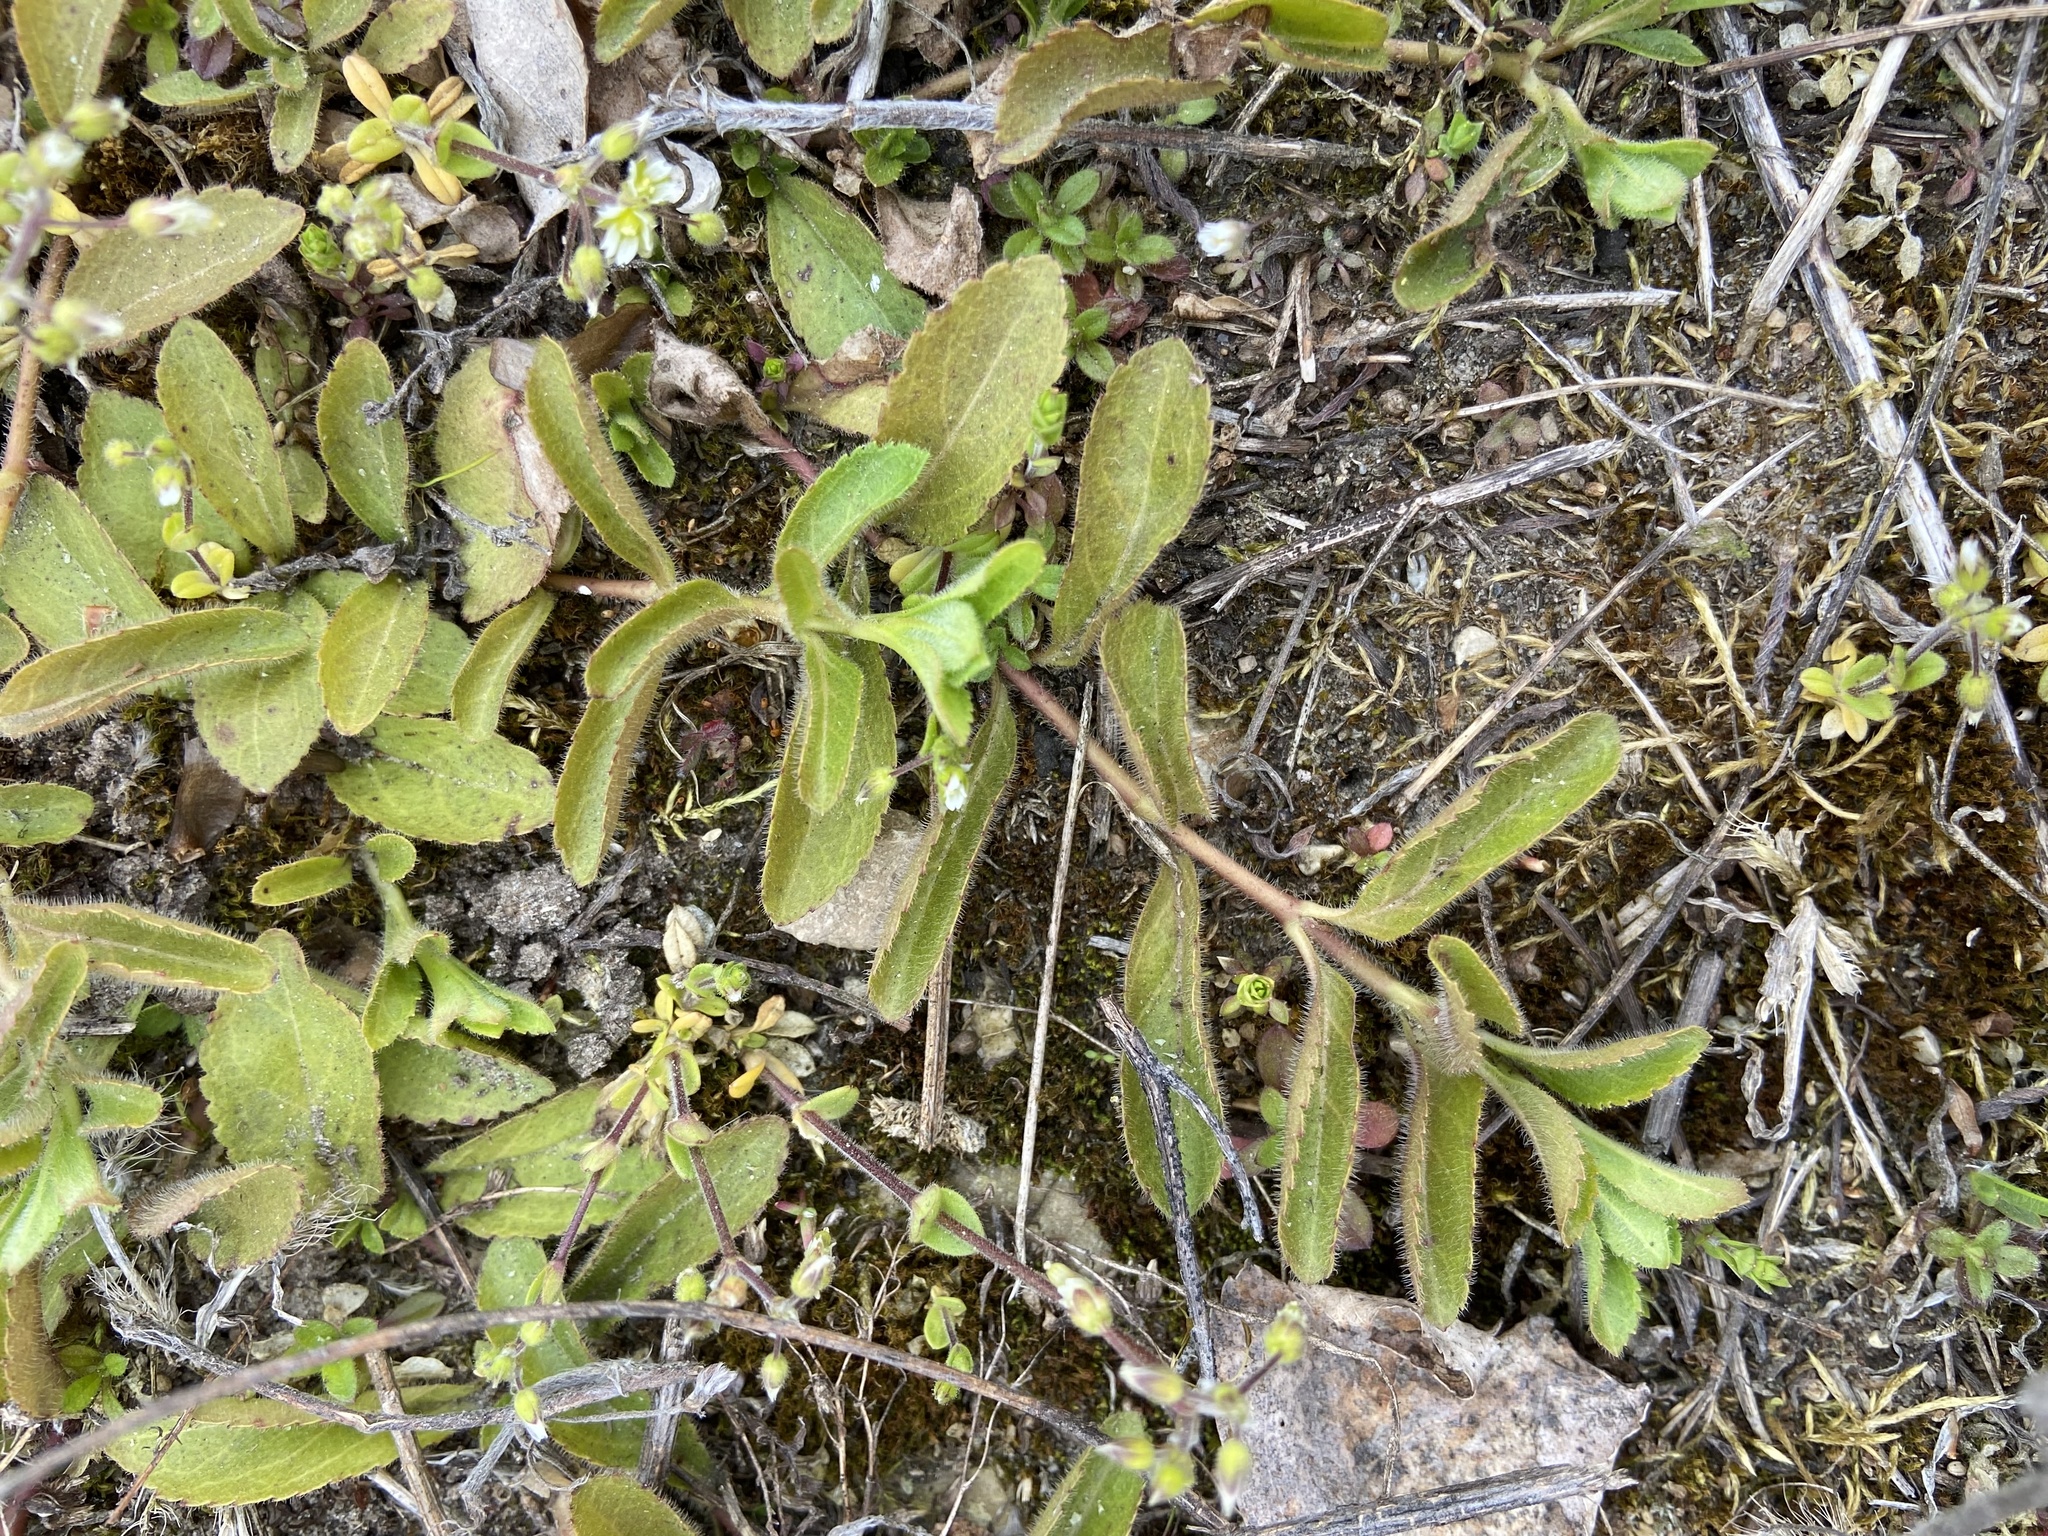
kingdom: Plantae
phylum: Tracheophyta
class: Magnoliopsida
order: Lamiales
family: Plantaginaceae
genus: Veronica
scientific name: Veronica officinalis
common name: Common speedwell
